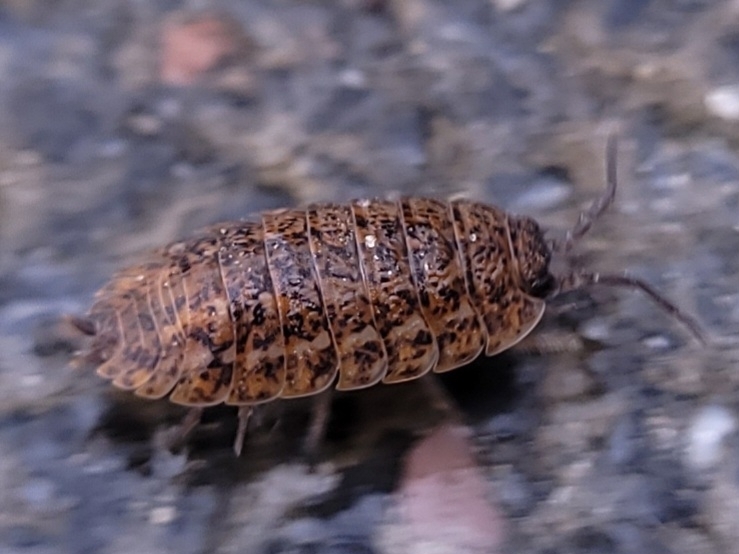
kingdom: Animalia
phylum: Arthropoda
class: Malacostraca
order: Isopoda
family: Trachelipodidae
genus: Trachelipus
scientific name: Trachelipus rathkii
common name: Isopod
